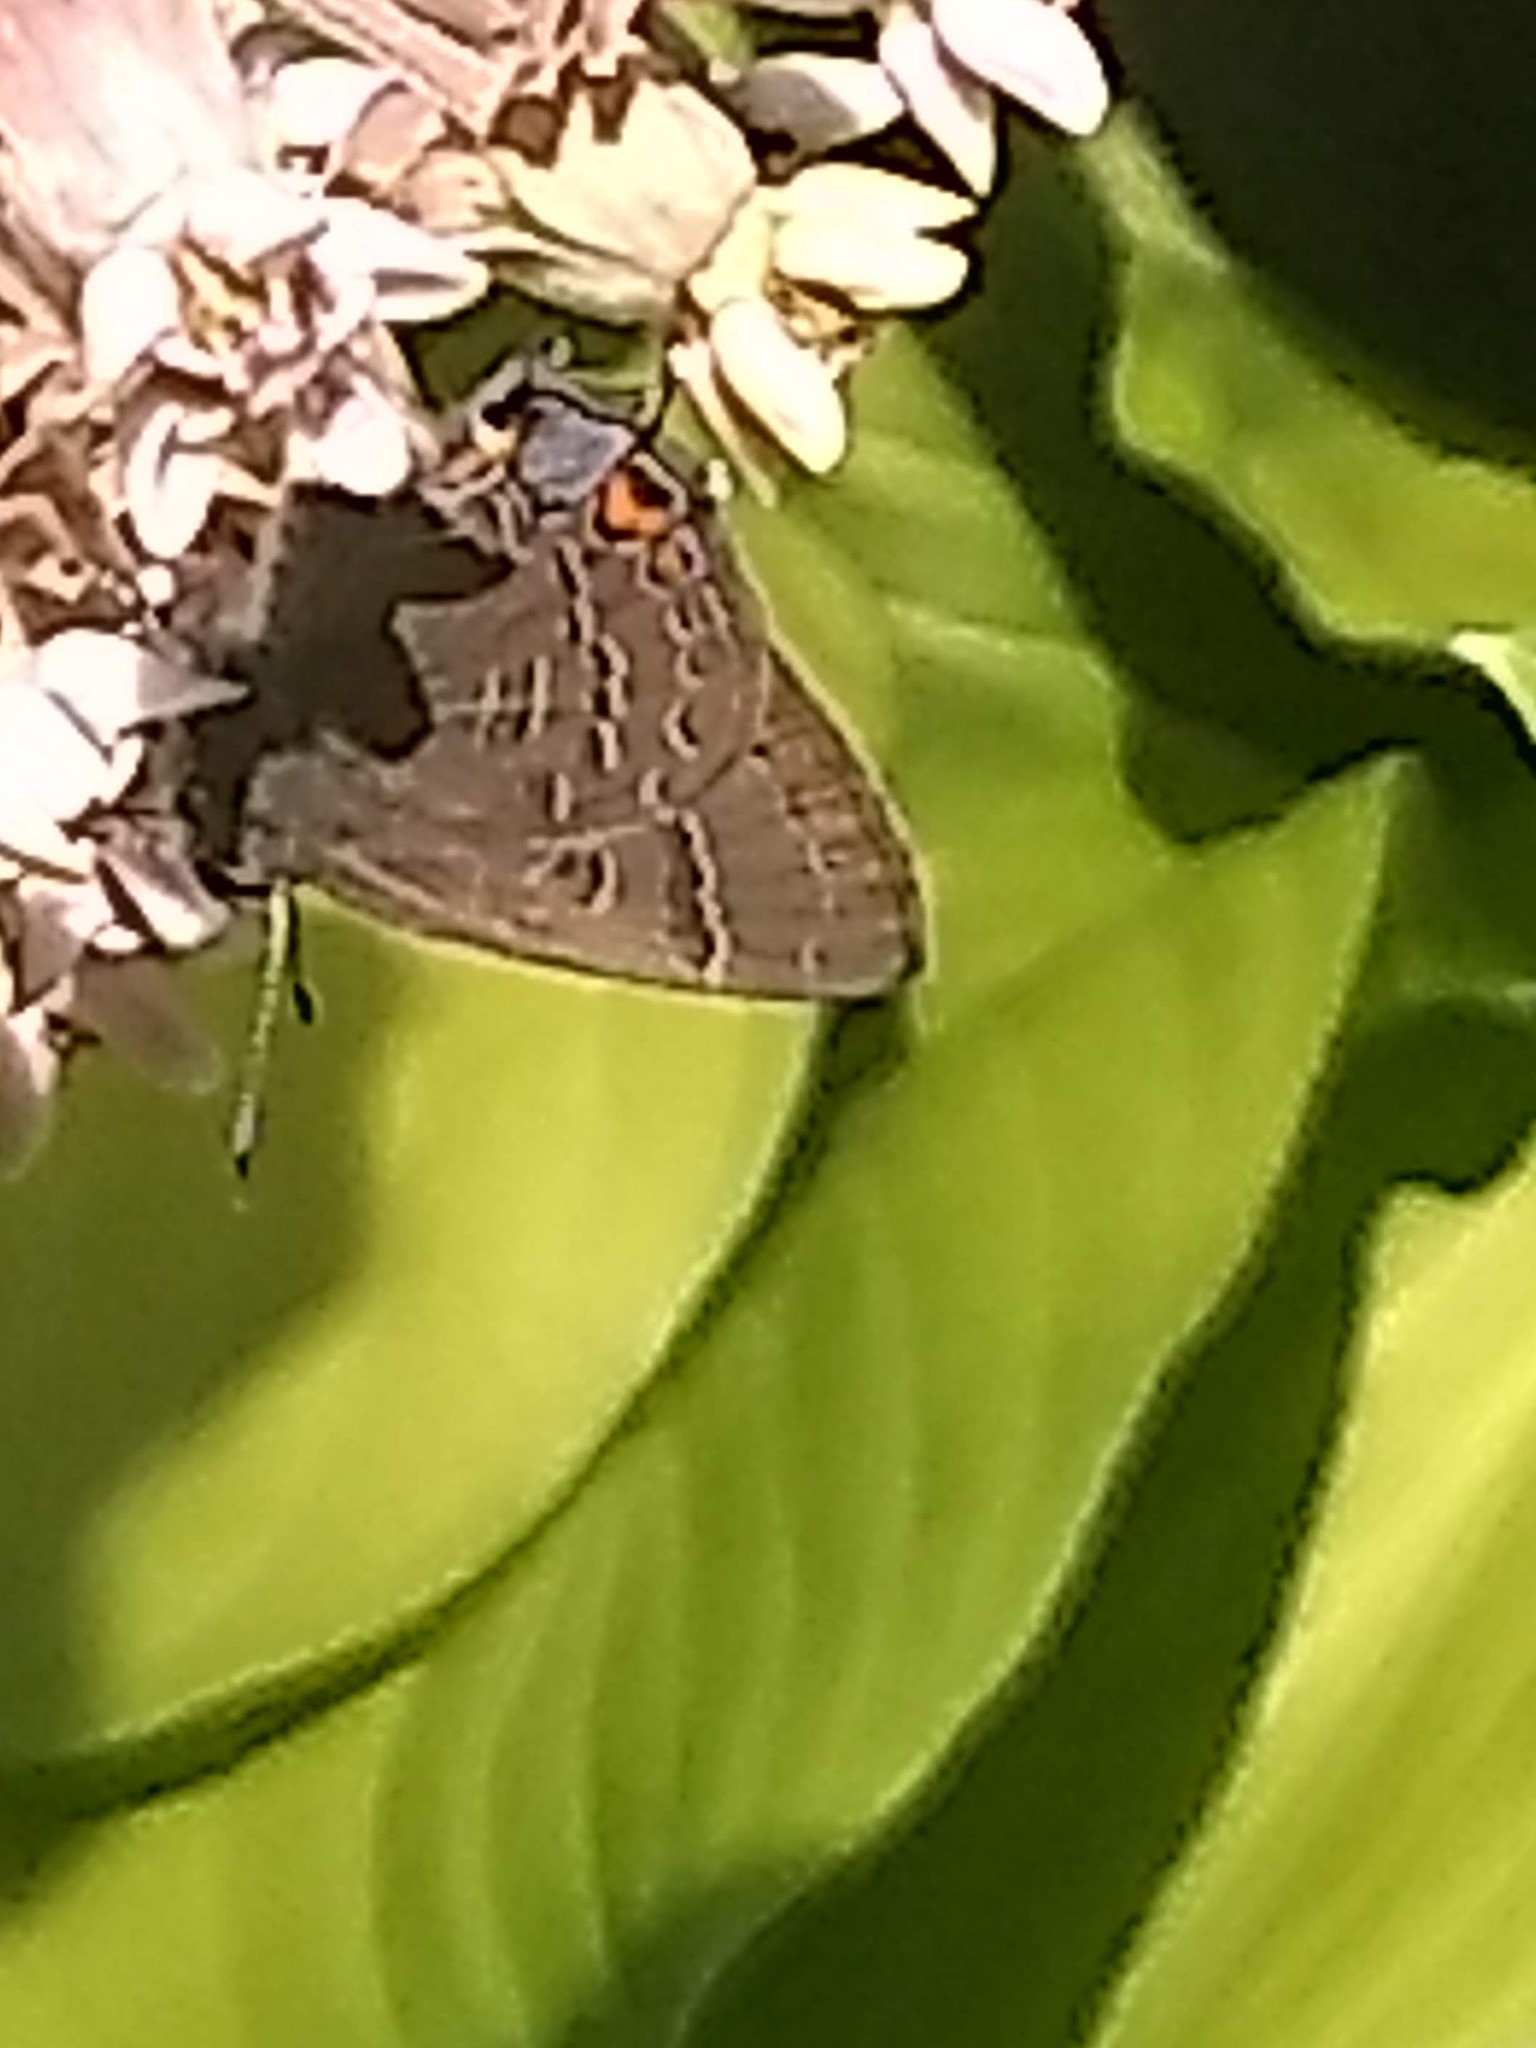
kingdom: Animalia
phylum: Arthropoda
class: Insecta
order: Lepidoptera
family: Lycaenidae
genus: Satyrium
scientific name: Satyrium calanus
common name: Banded hairstreak
